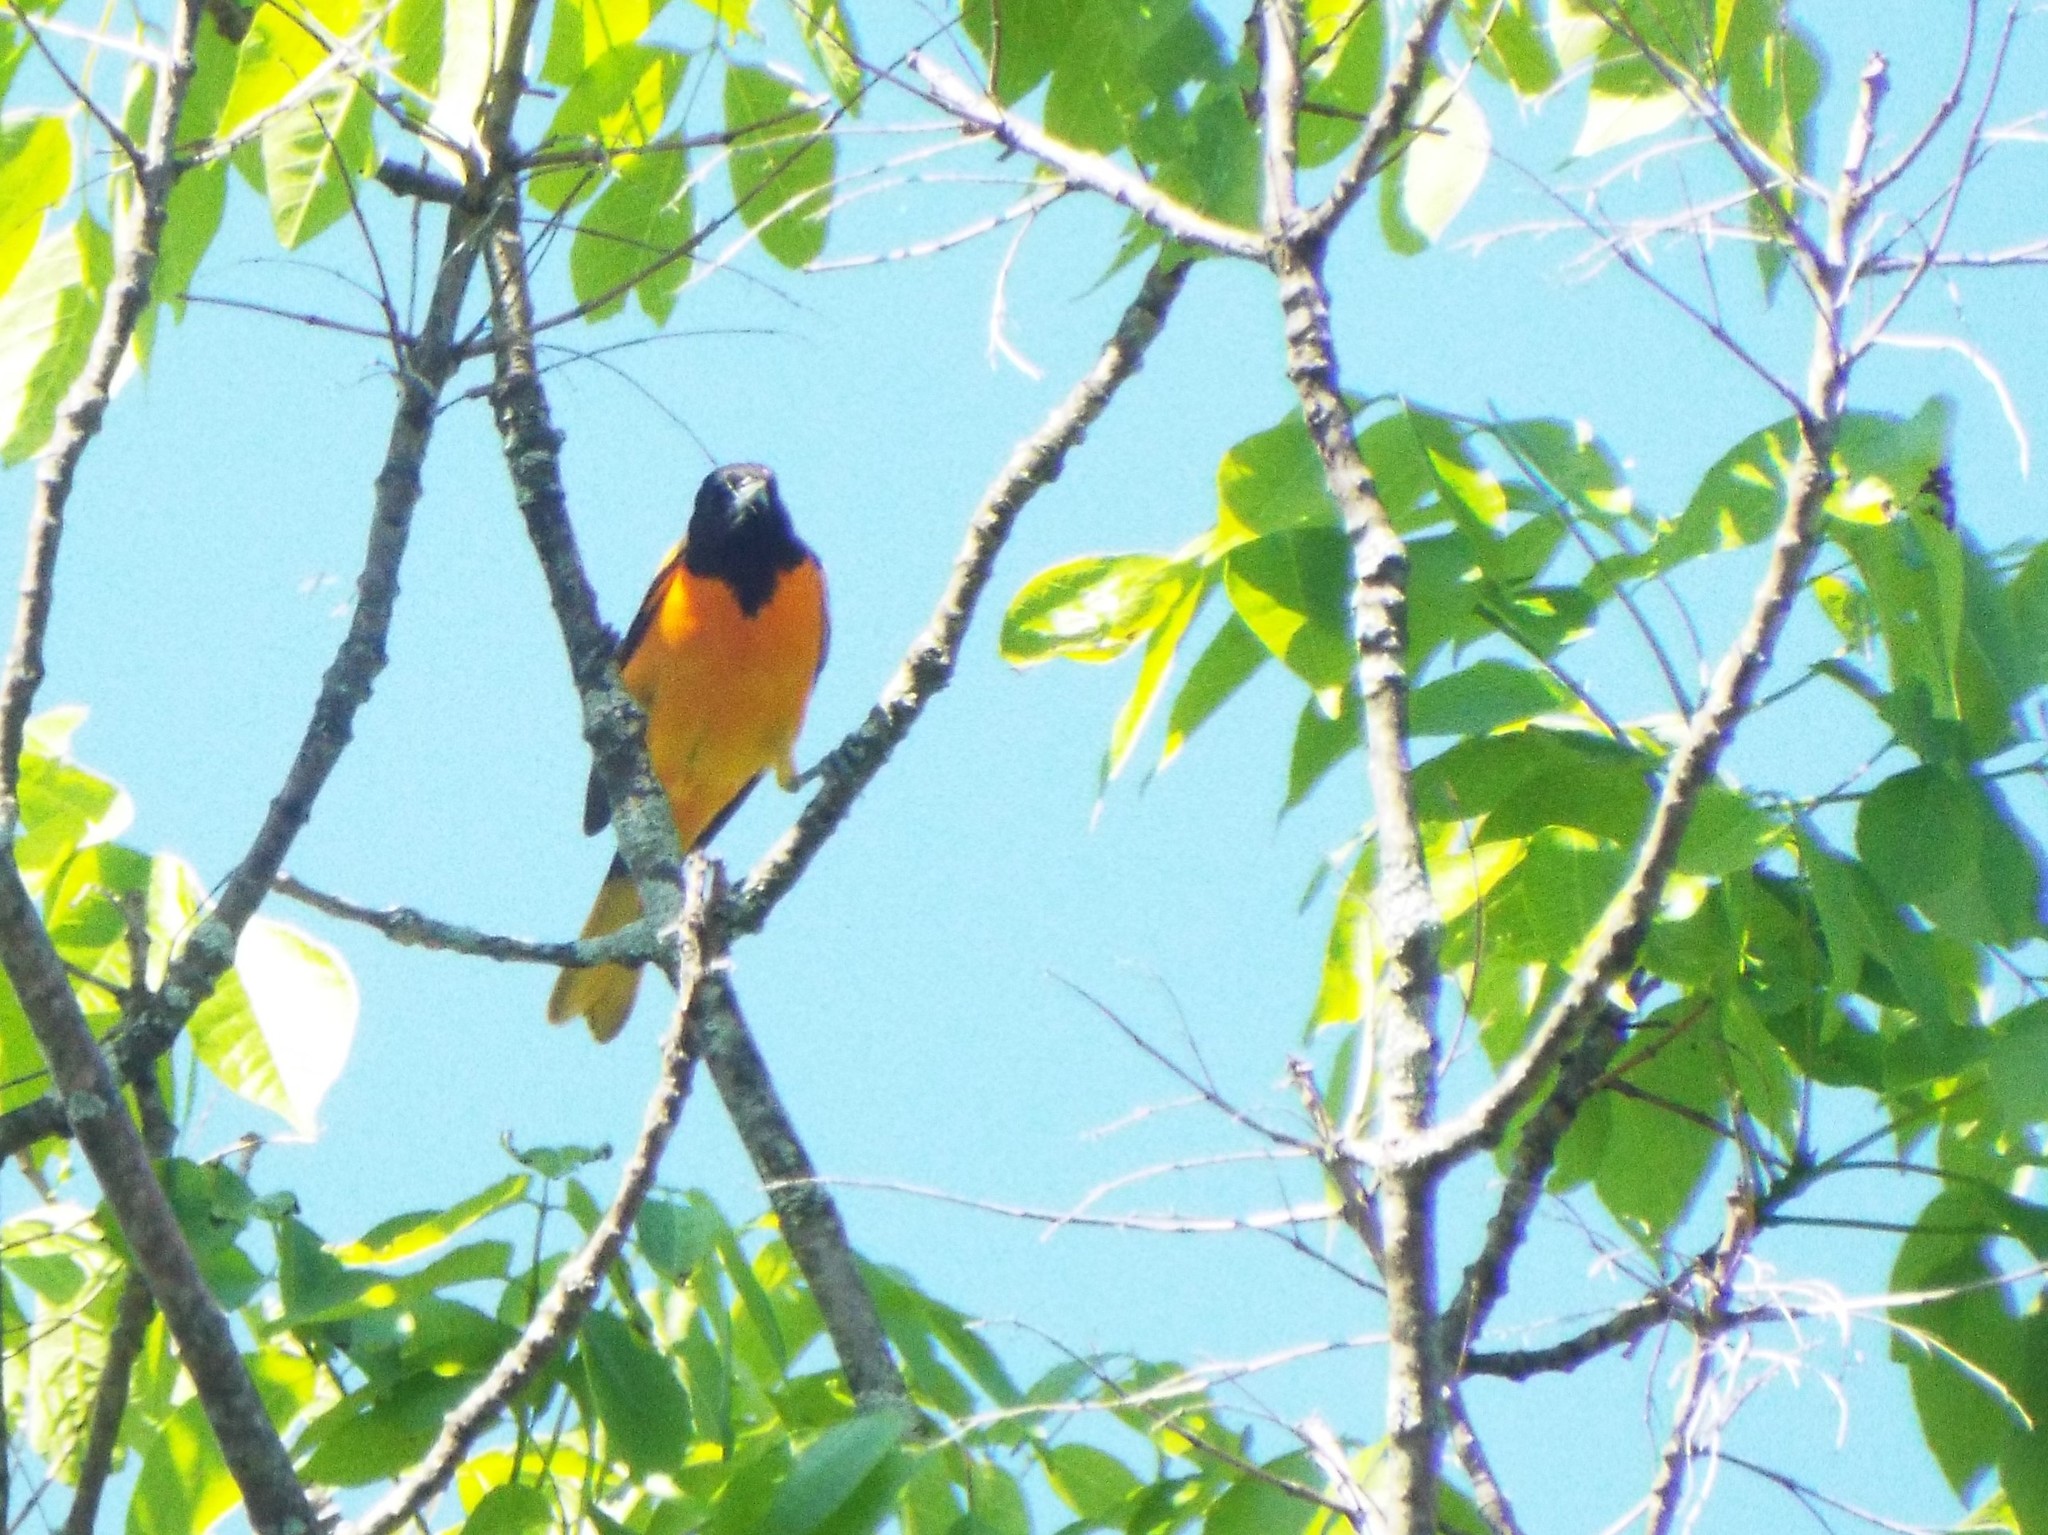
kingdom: Animalia
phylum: Chordata
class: Aves
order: Passeriformes
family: Icteridae
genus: Icterus
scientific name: Icterus galbula
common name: Baltimore oriole
